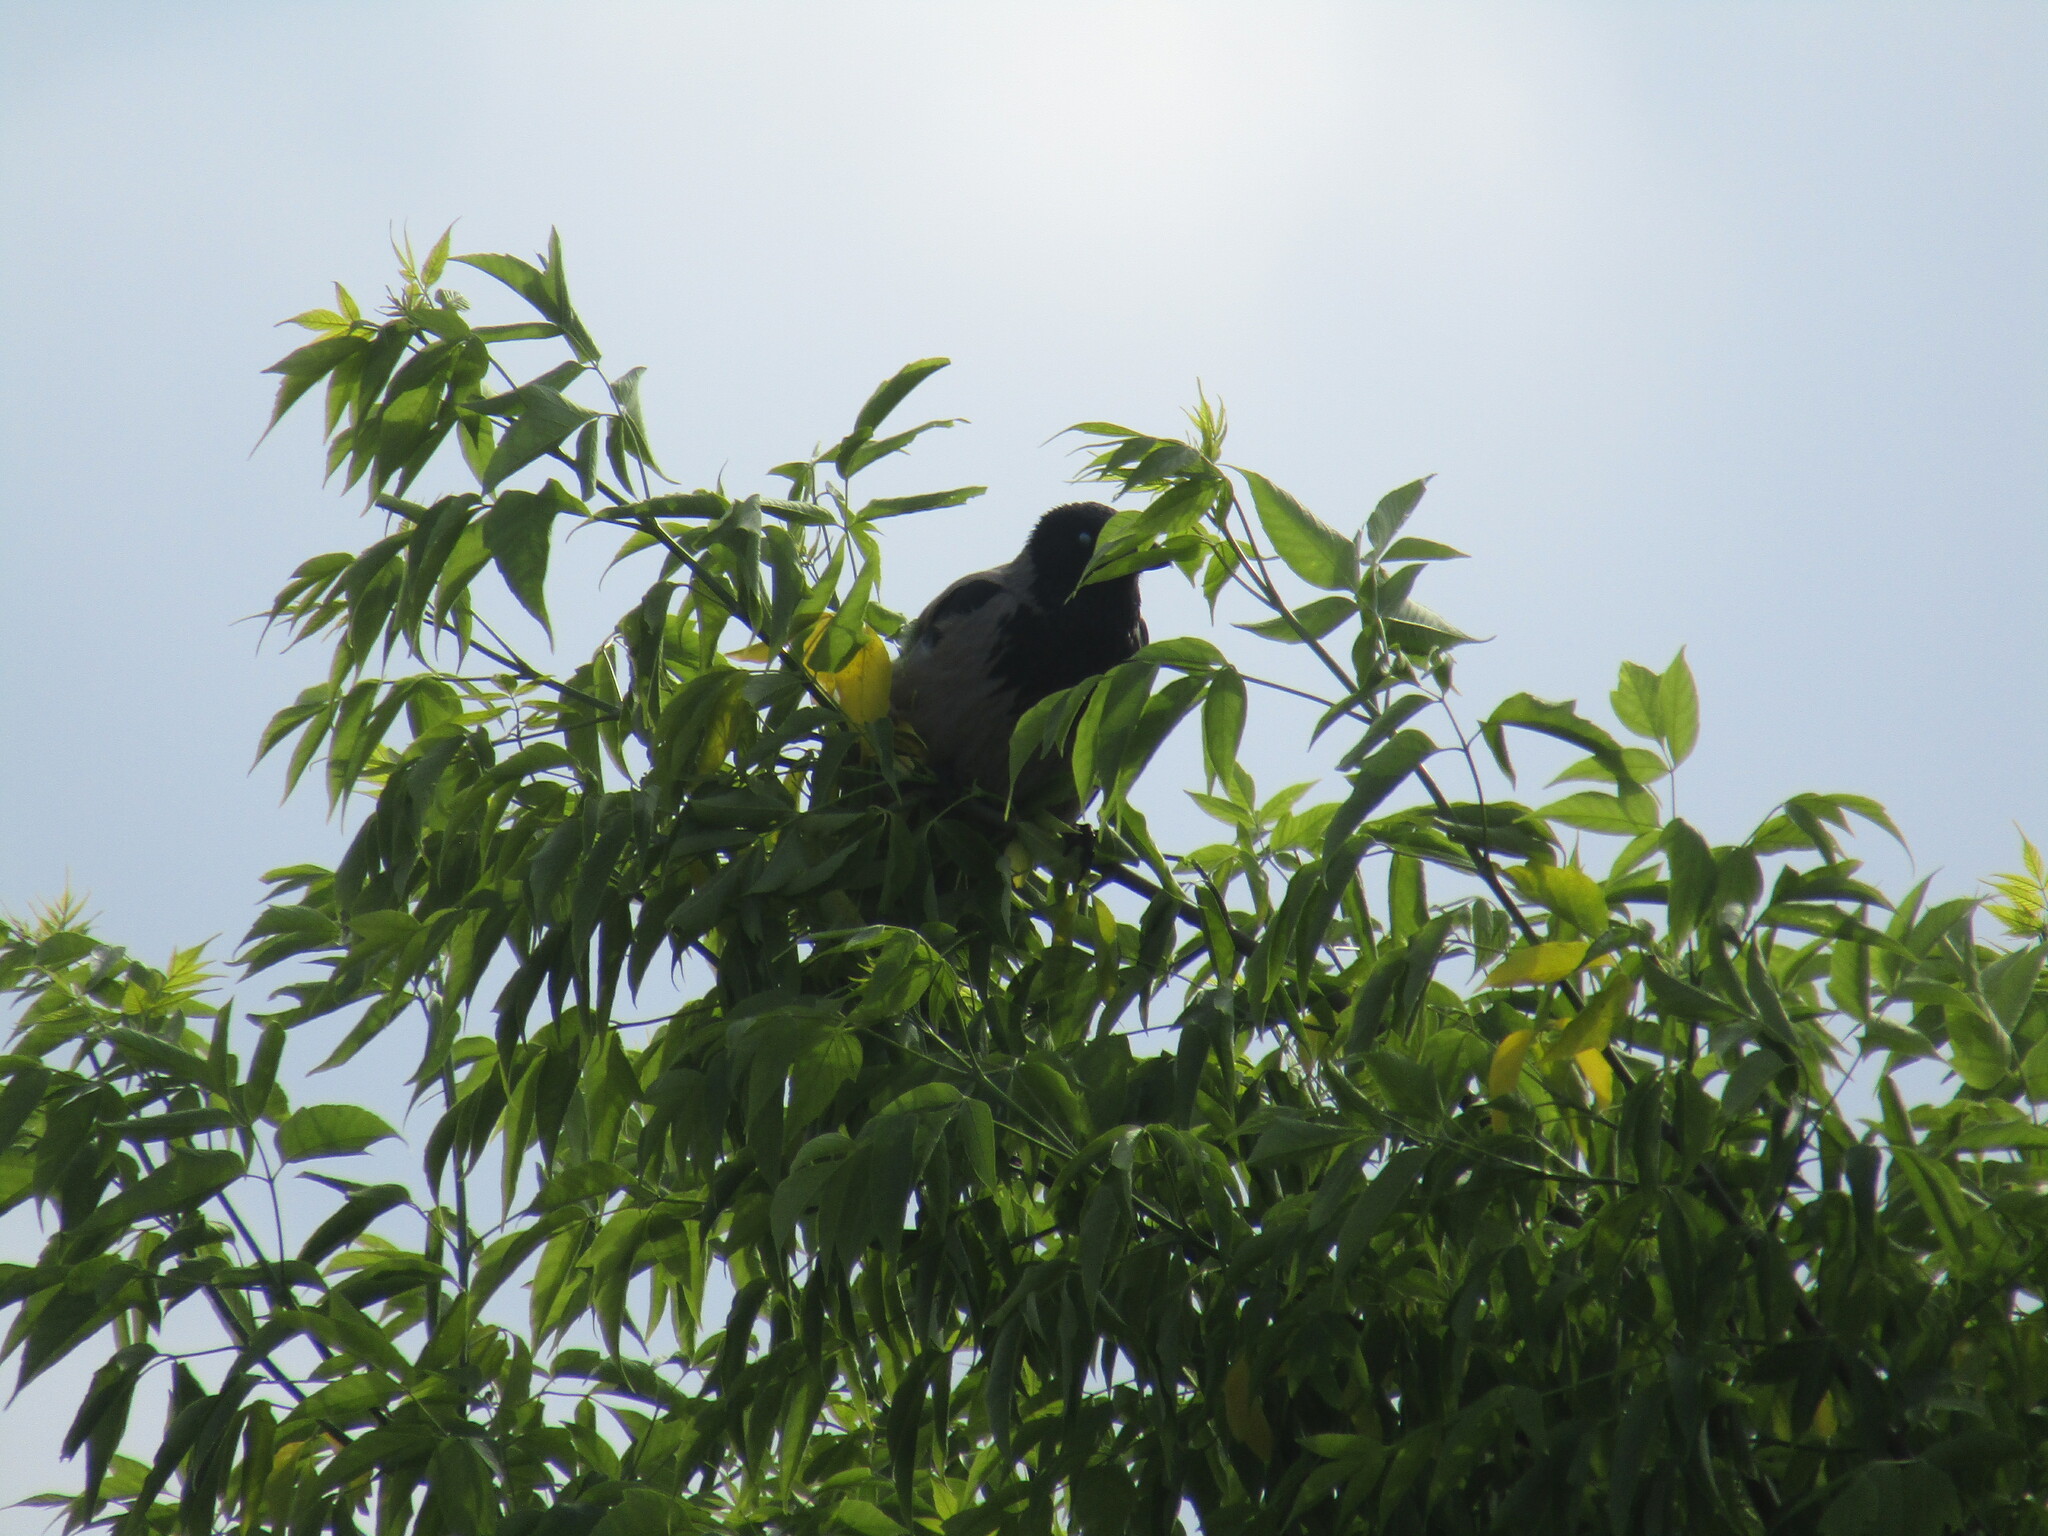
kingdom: Animalia
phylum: Chordata
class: Aves
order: Passeriformes
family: Corvidae
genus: Corvus
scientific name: Corvus cornix
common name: Hooded crow
